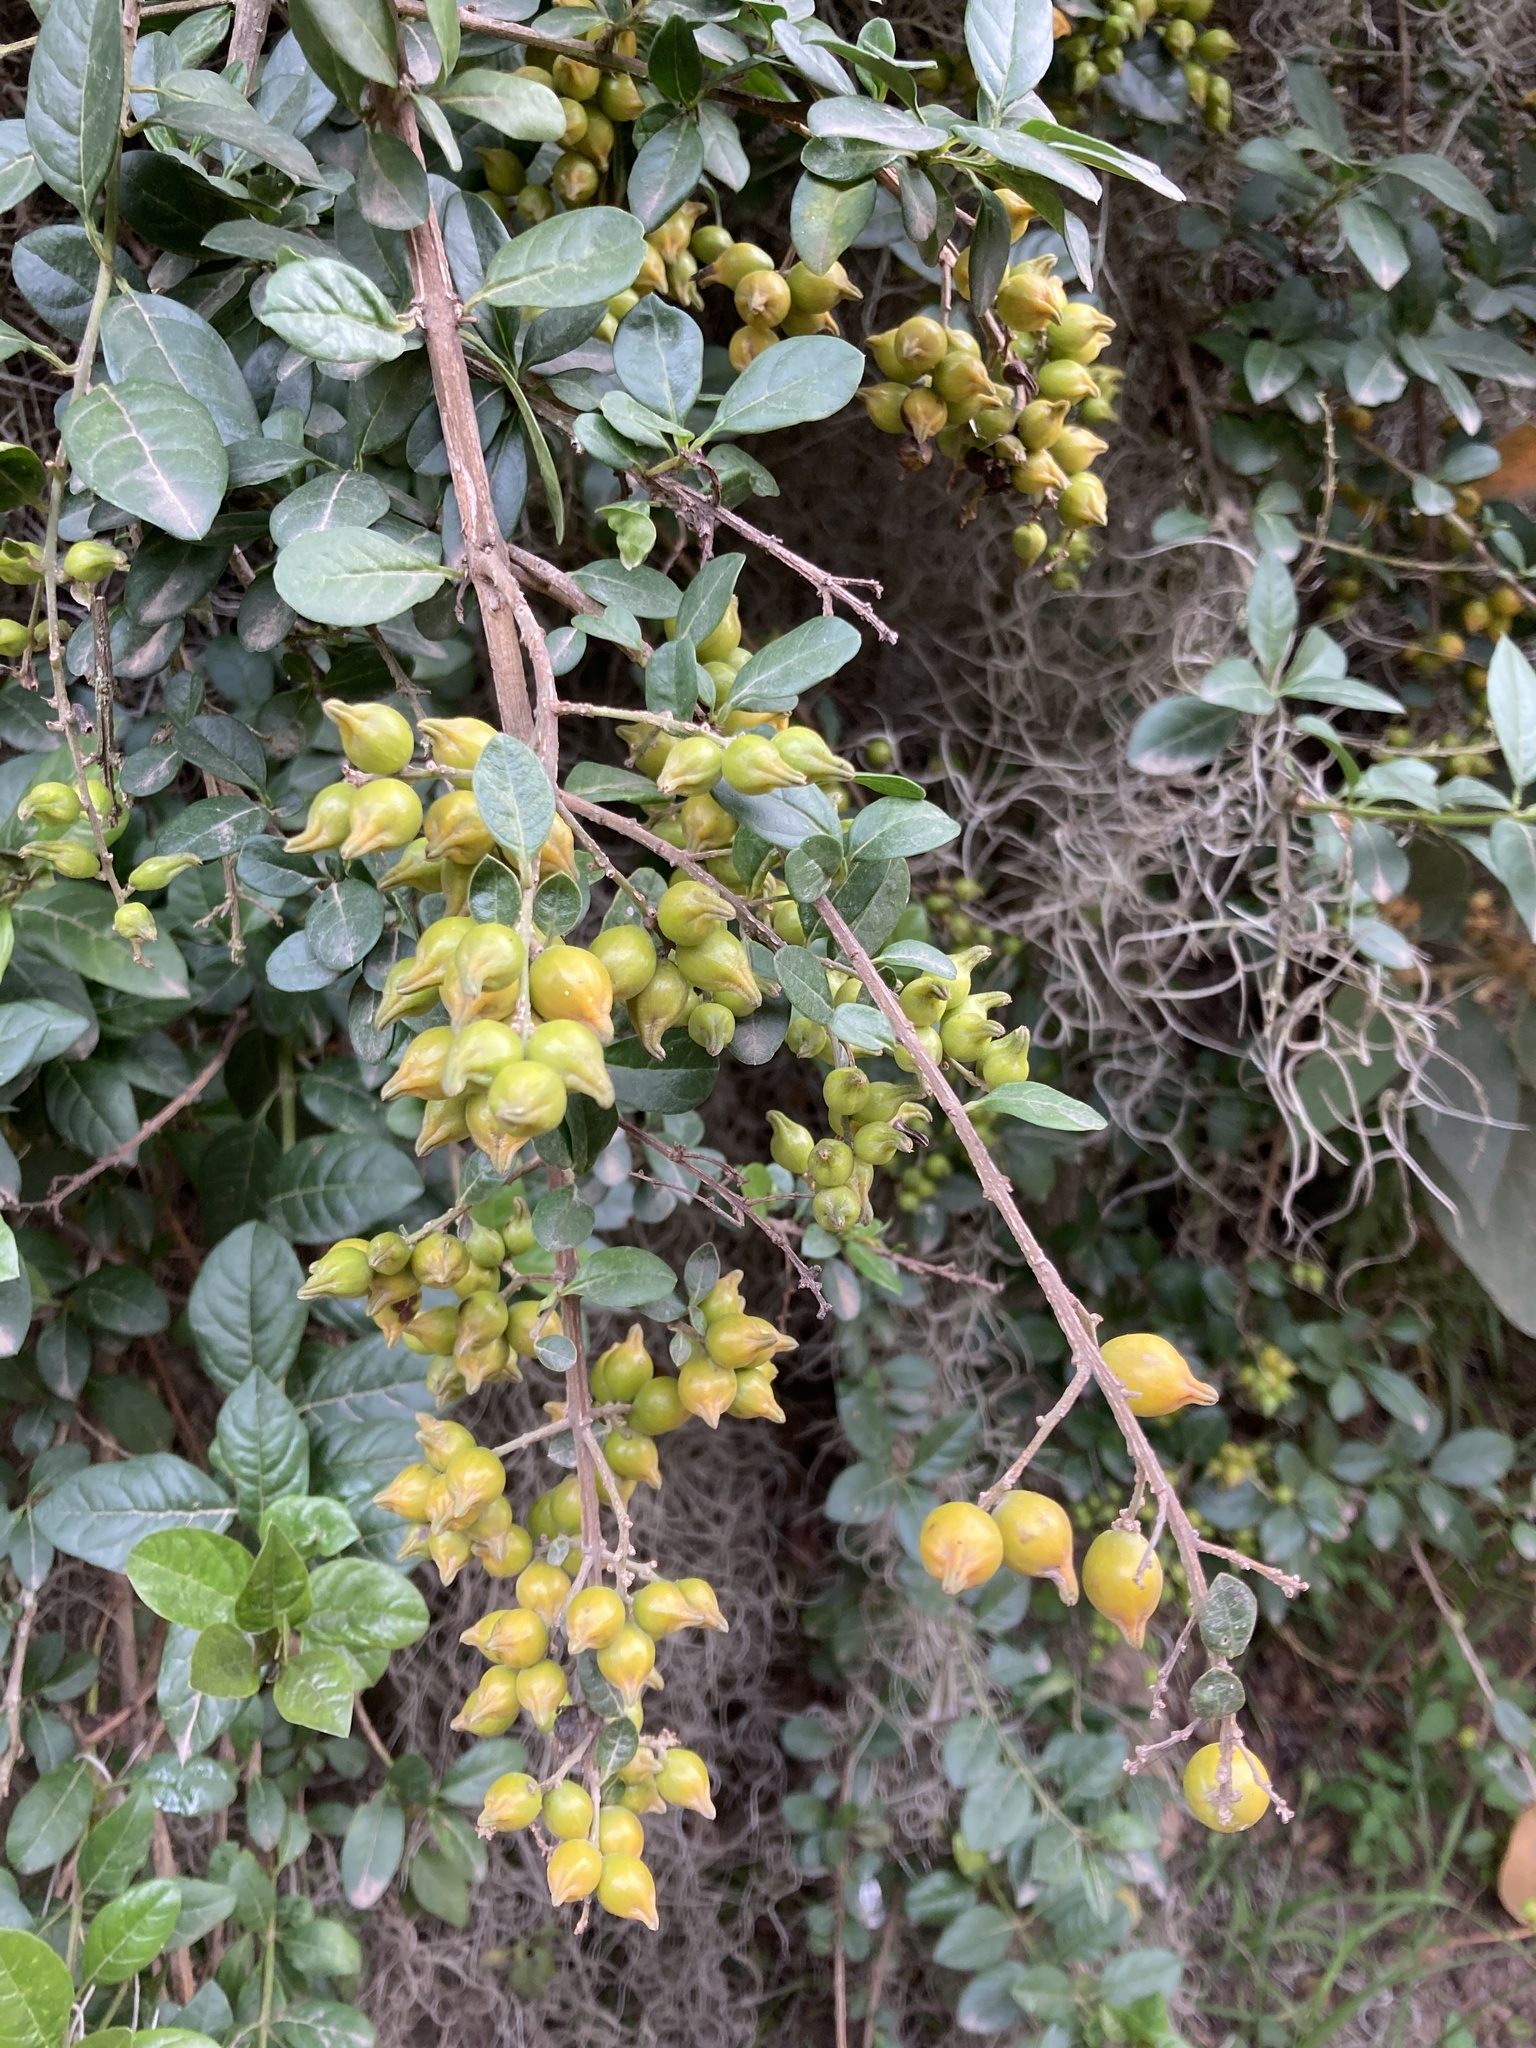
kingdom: Plantae
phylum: Tracheophyta
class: Magnoliopsida
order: Lamiales
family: Verbenaceae
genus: Duranta
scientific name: Duranta mutisii
